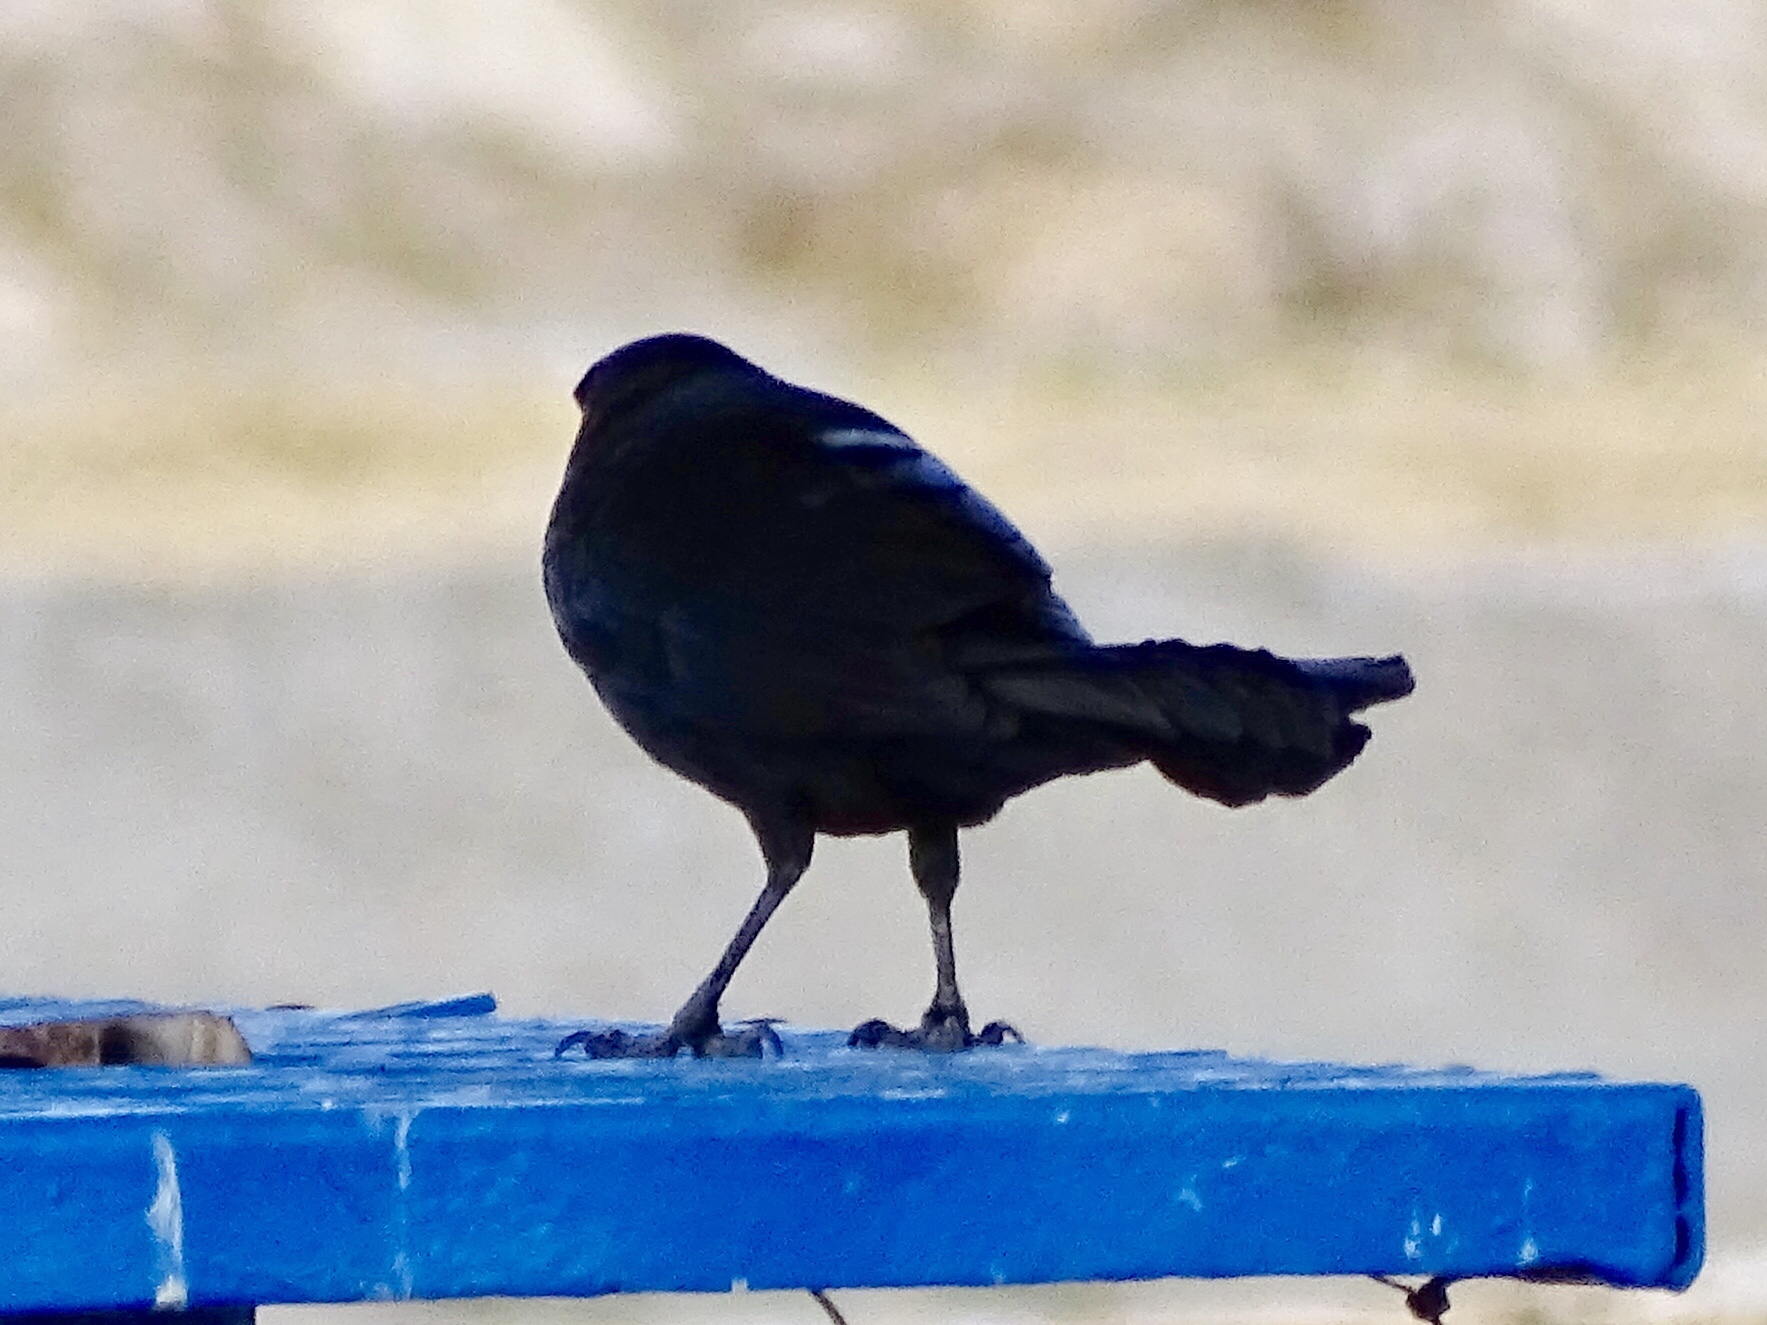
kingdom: Animalia
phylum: Chordata
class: Aves
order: Passeriformes
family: Icteridae
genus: Quiscalus
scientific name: Quiscalus mexicanus
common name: Great-tailed grackle
